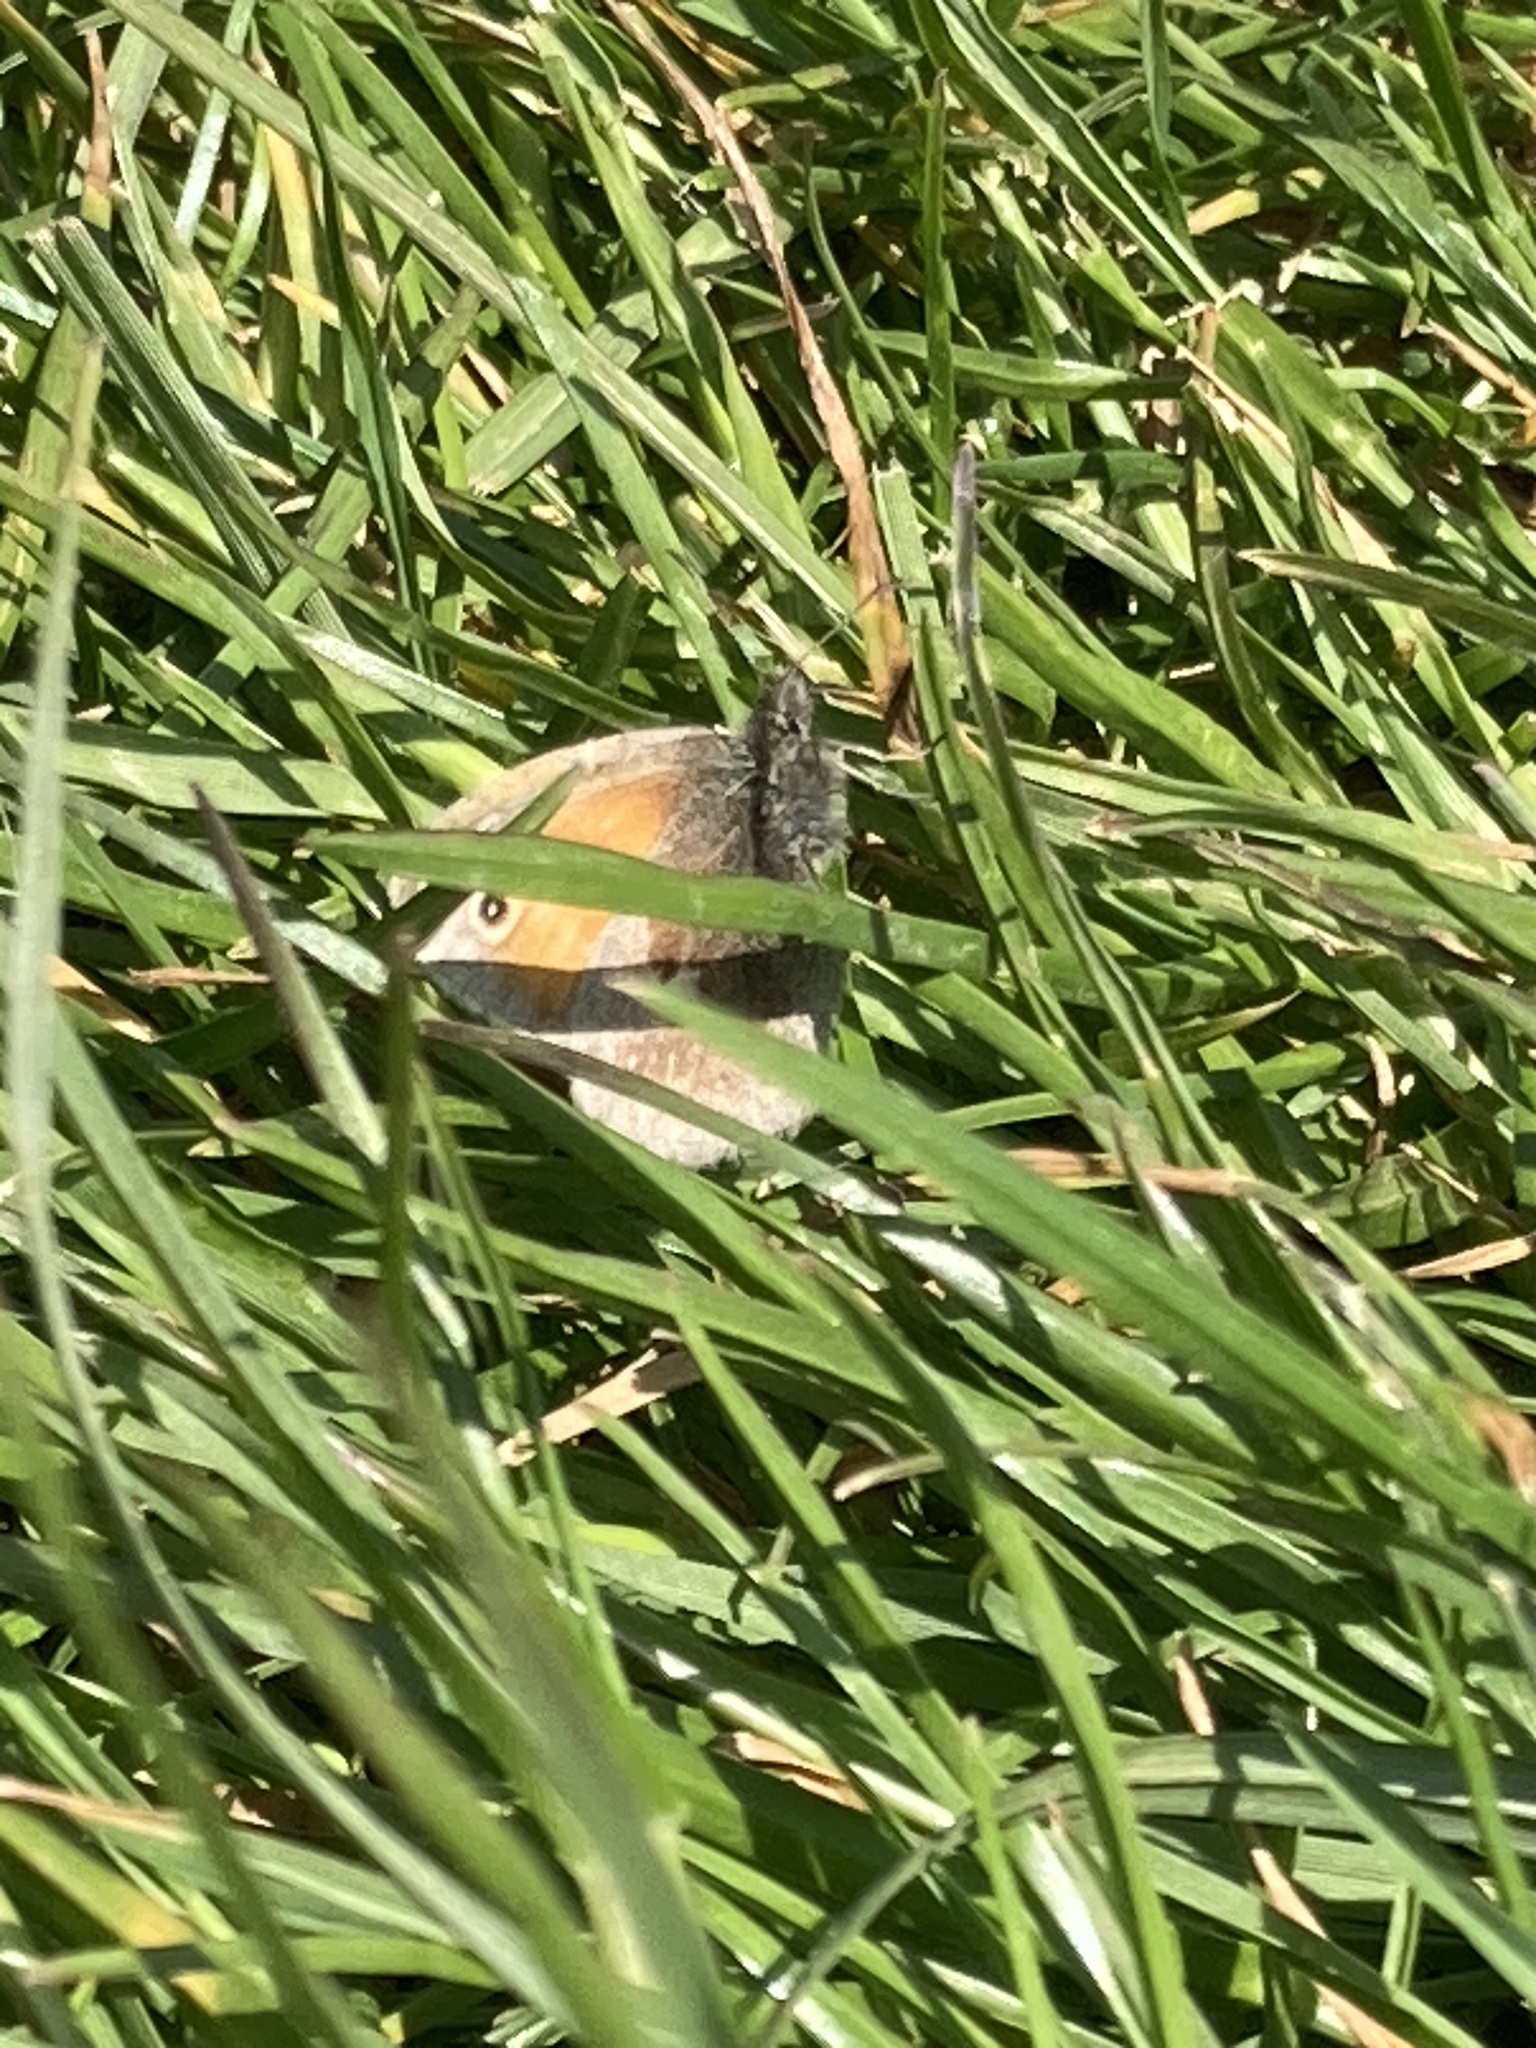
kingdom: Animalia
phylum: Arthropoda
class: Insecta
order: Lepidoptera
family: Nymphalidae
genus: Coenonympha
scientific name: Coenonympha pamphilus
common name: Small heath
